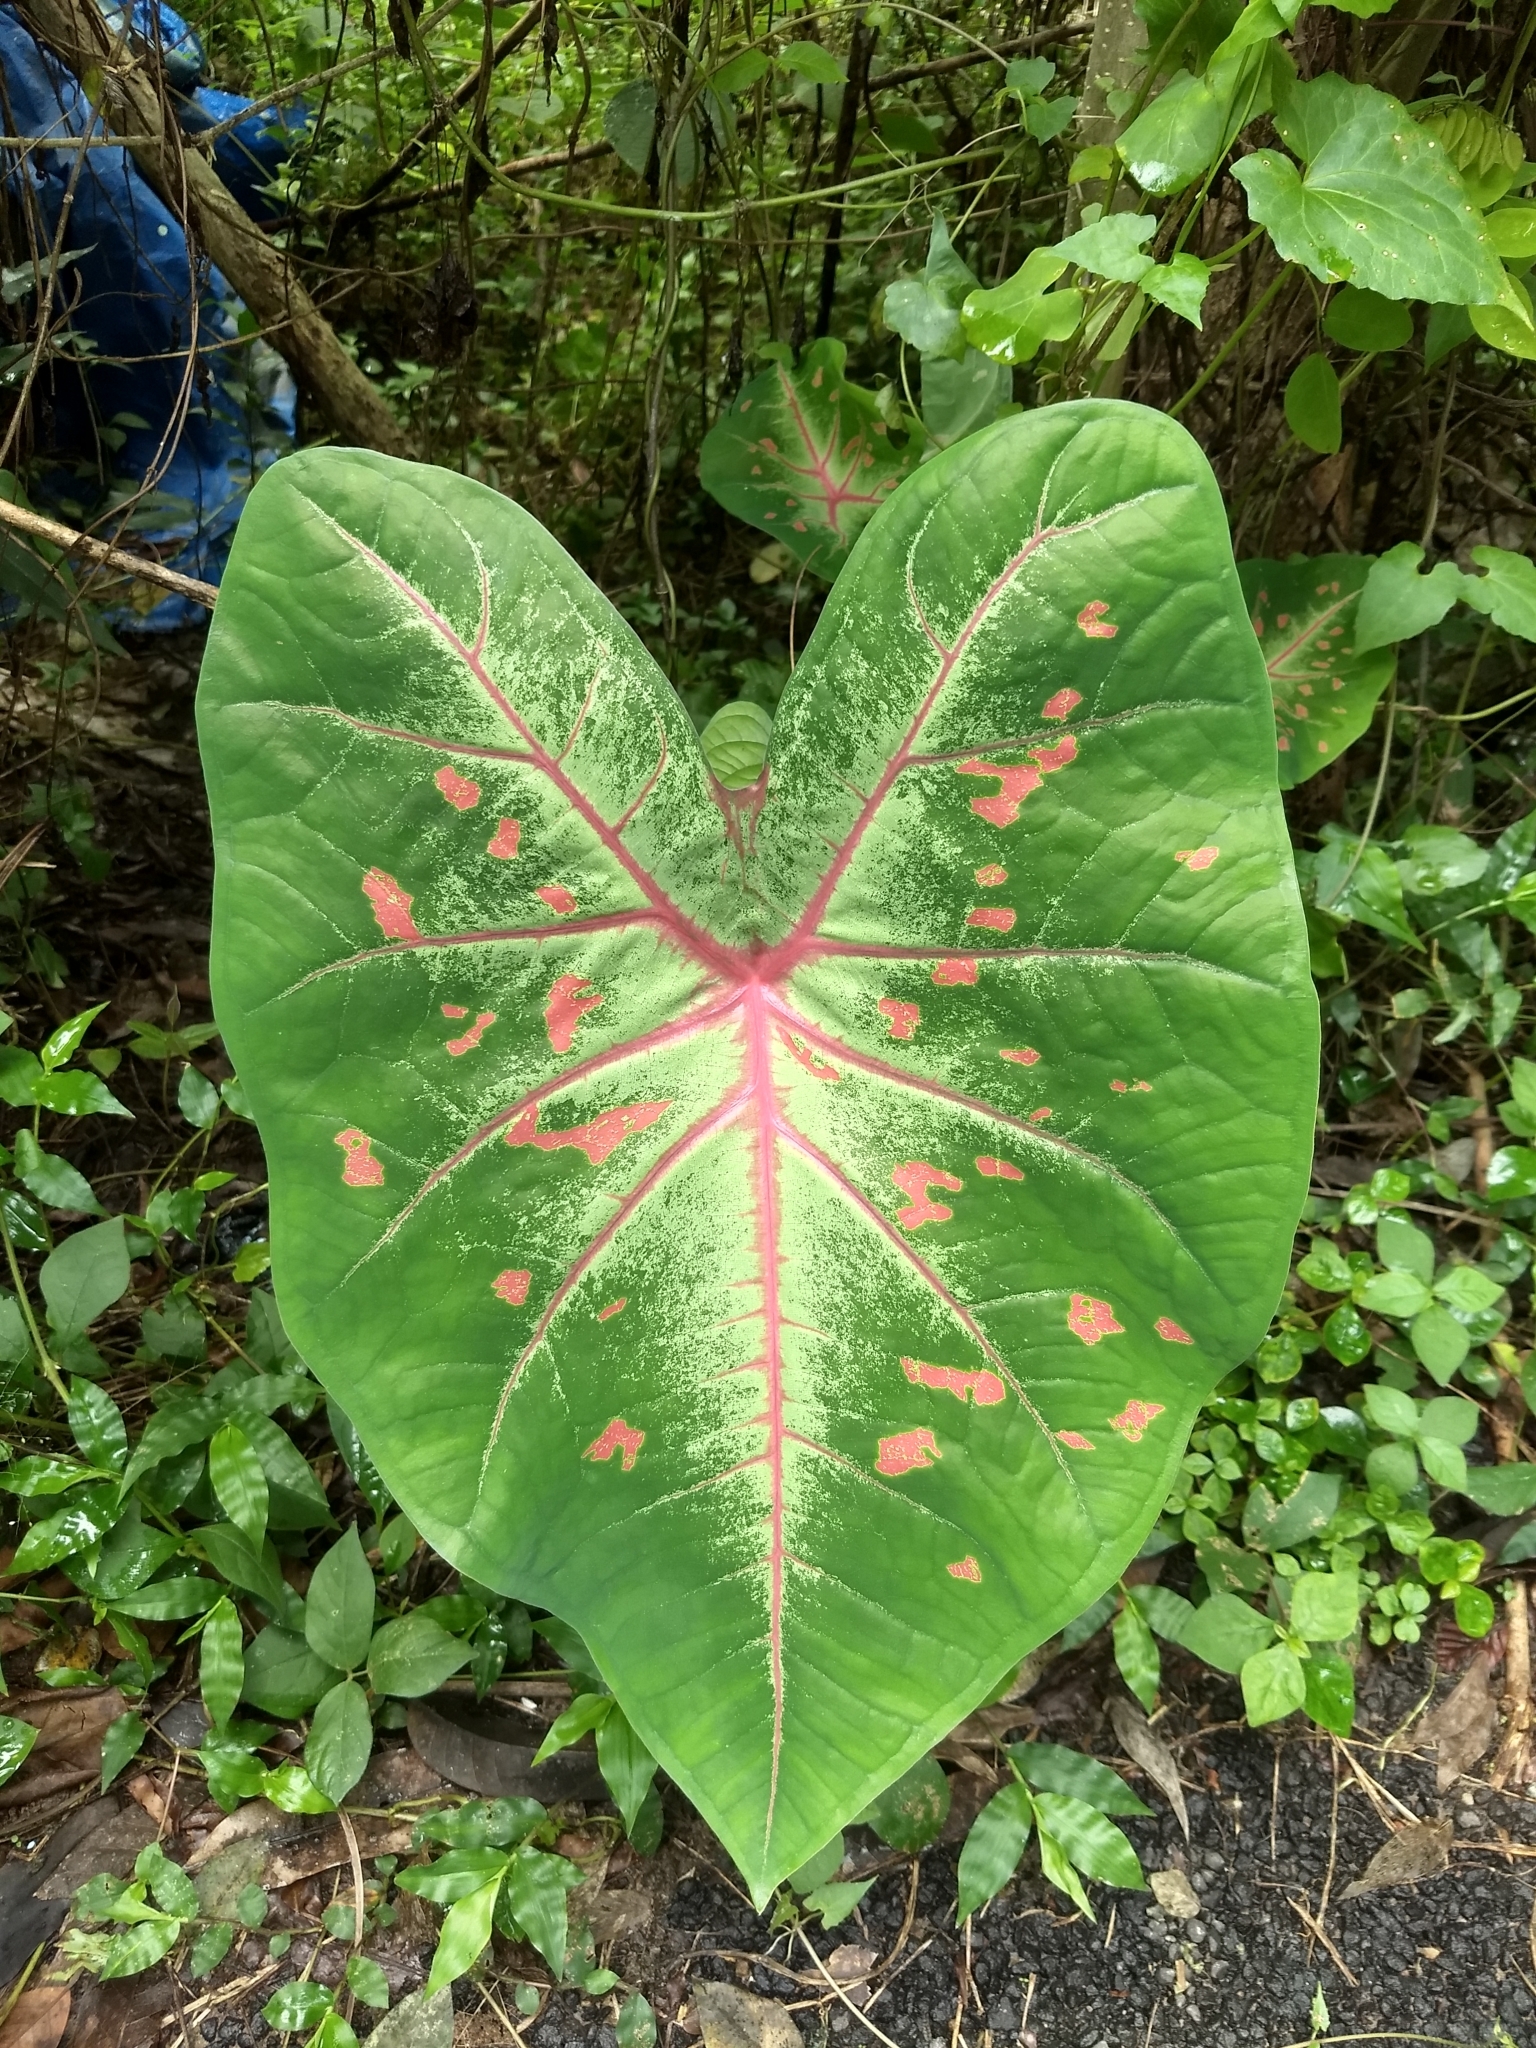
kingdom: Plantae
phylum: Tracheophyta
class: Liliopsida
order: Alismatales
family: Araceae
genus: Caladium
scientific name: Caladium bicolor
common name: Artist's pallet
